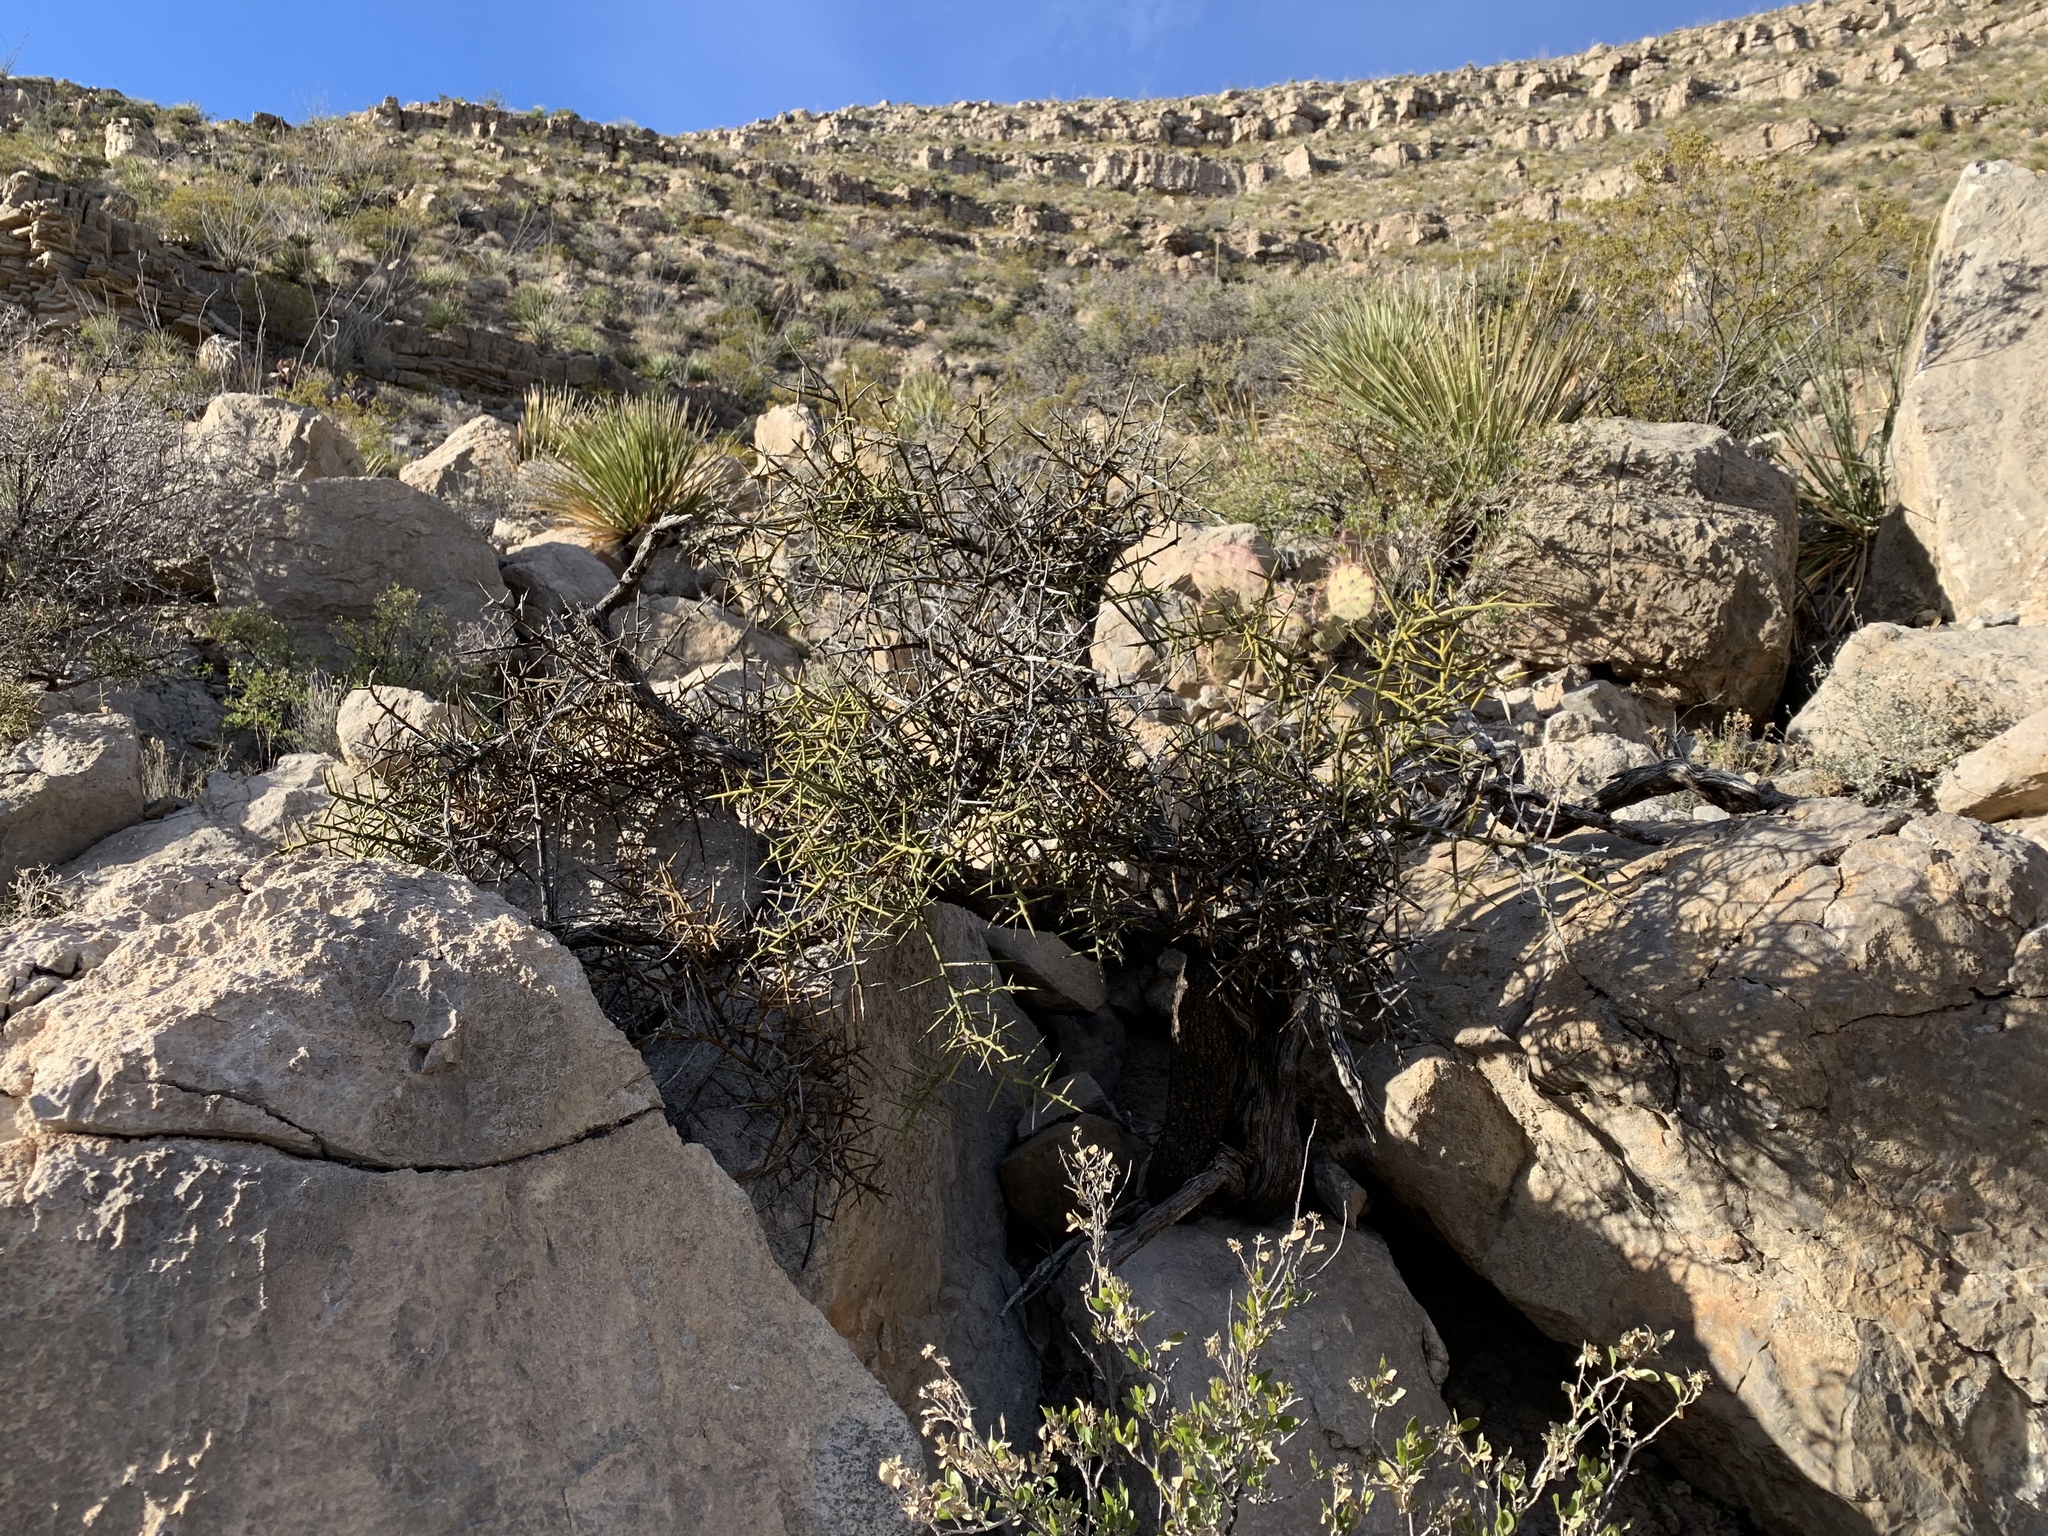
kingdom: Plantae
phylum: Tracheophyta
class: Magnoliopsida
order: Brassicales
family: Koeberliniaceae
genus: Koeberlinia
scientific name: Koeberlinia spinosa
